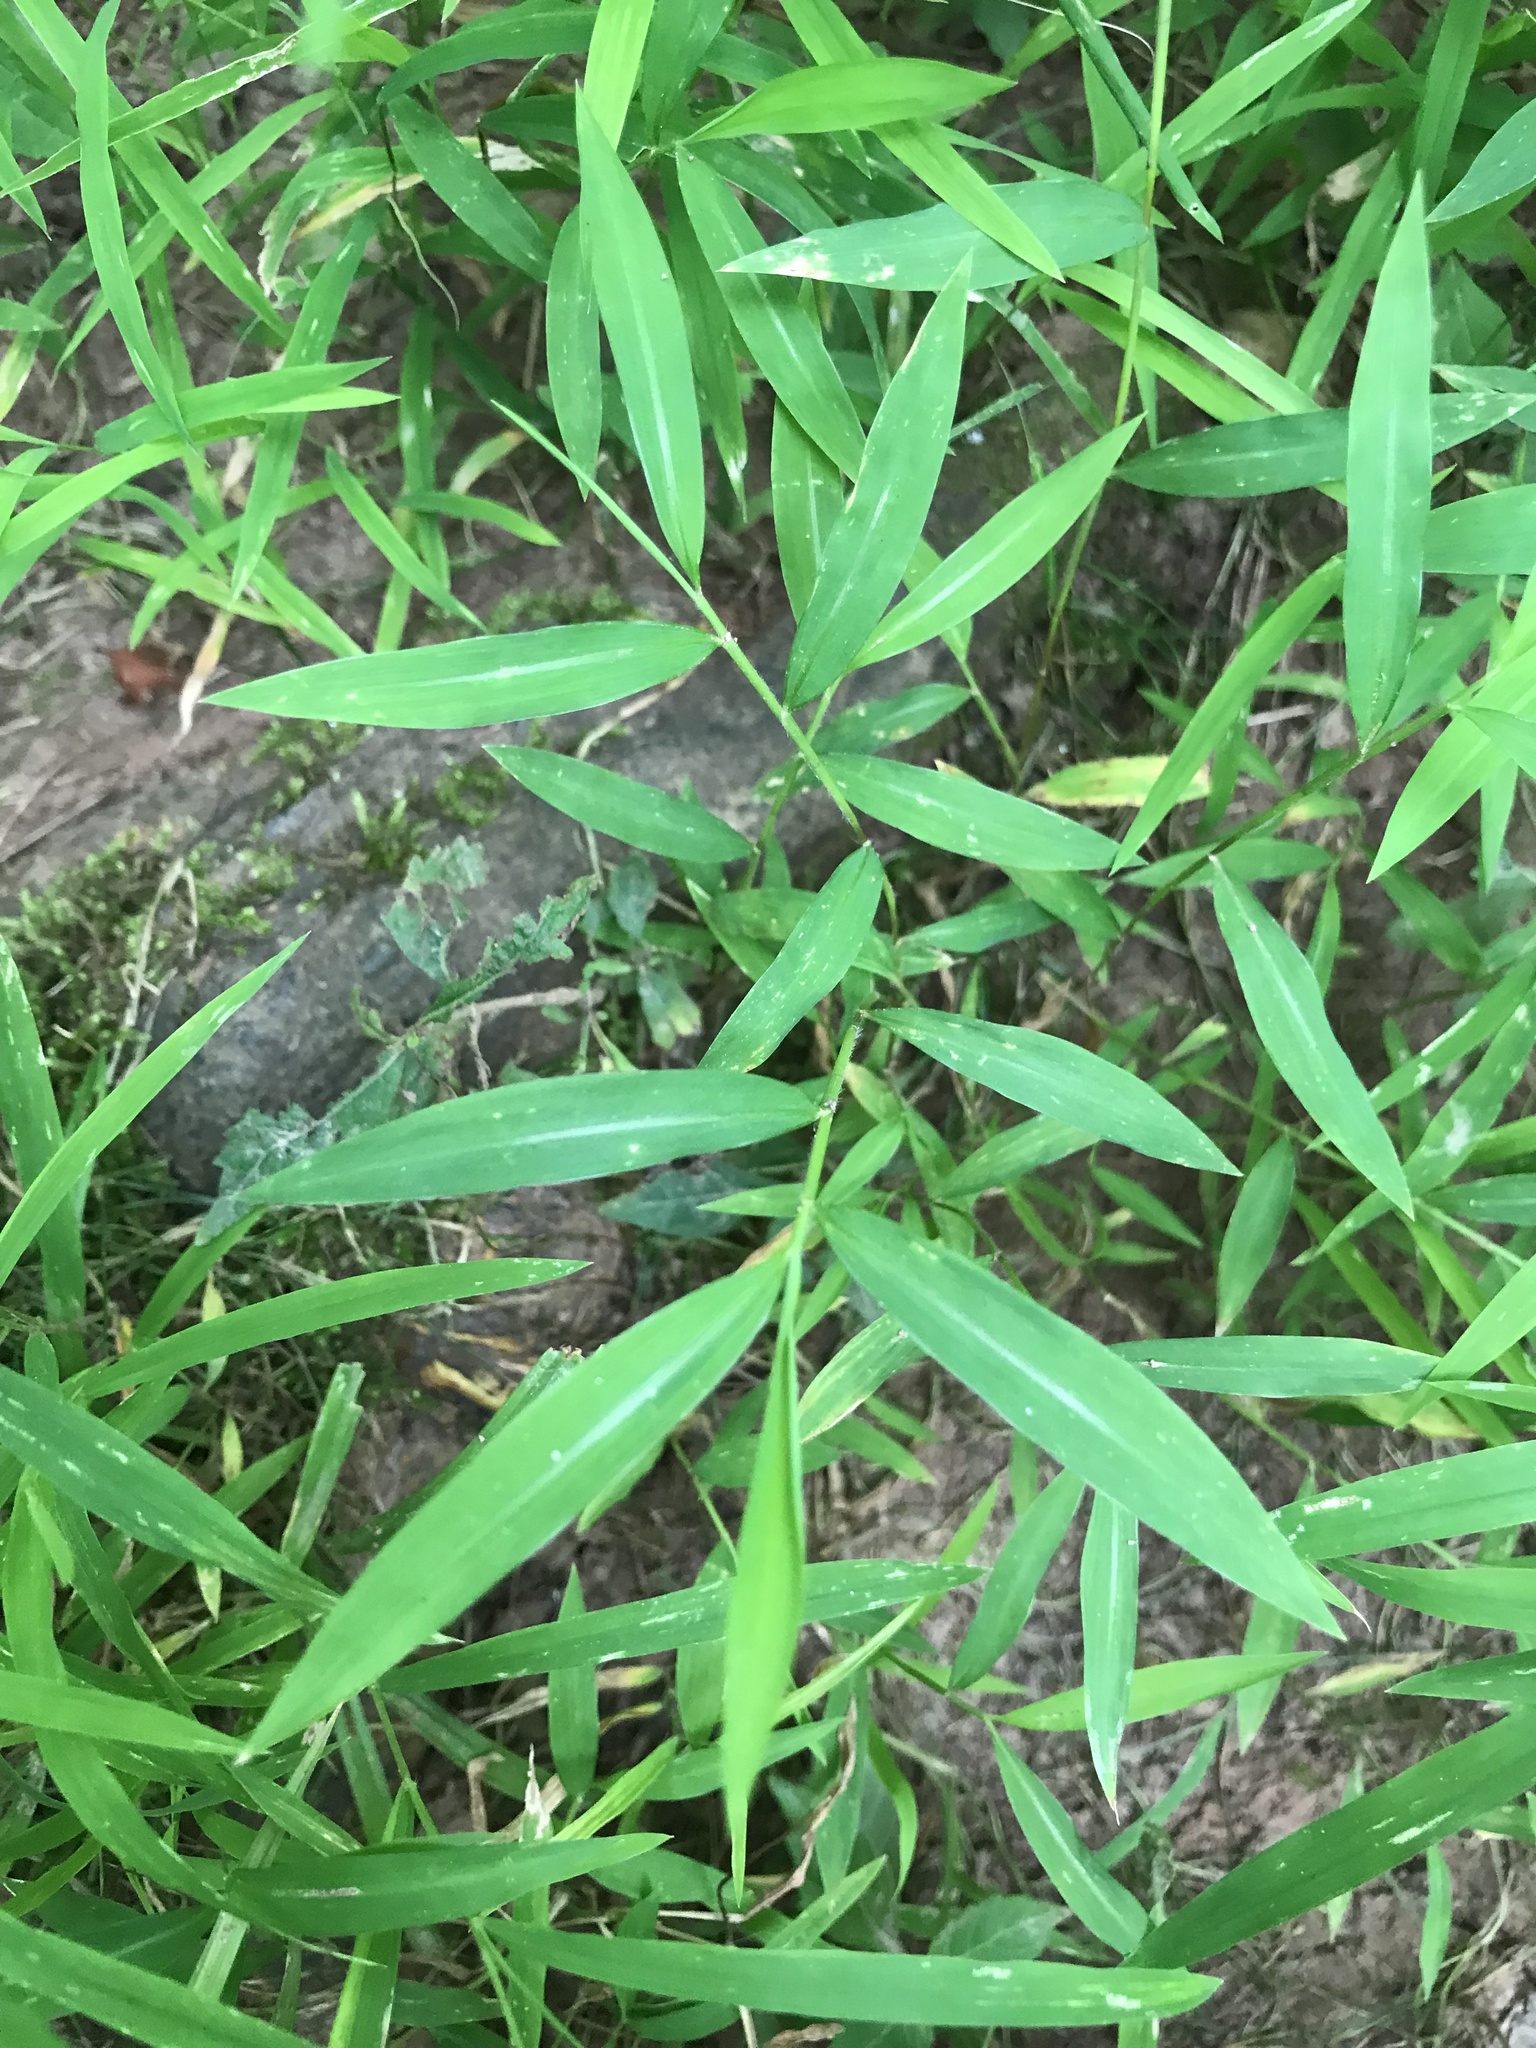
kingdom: Plantae
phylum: Tracheophyta
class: Liliopsida
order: Poales
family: Poaceae
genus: Microstegium
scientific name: Microstegium vimineum
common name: Japanese stiltgrass
